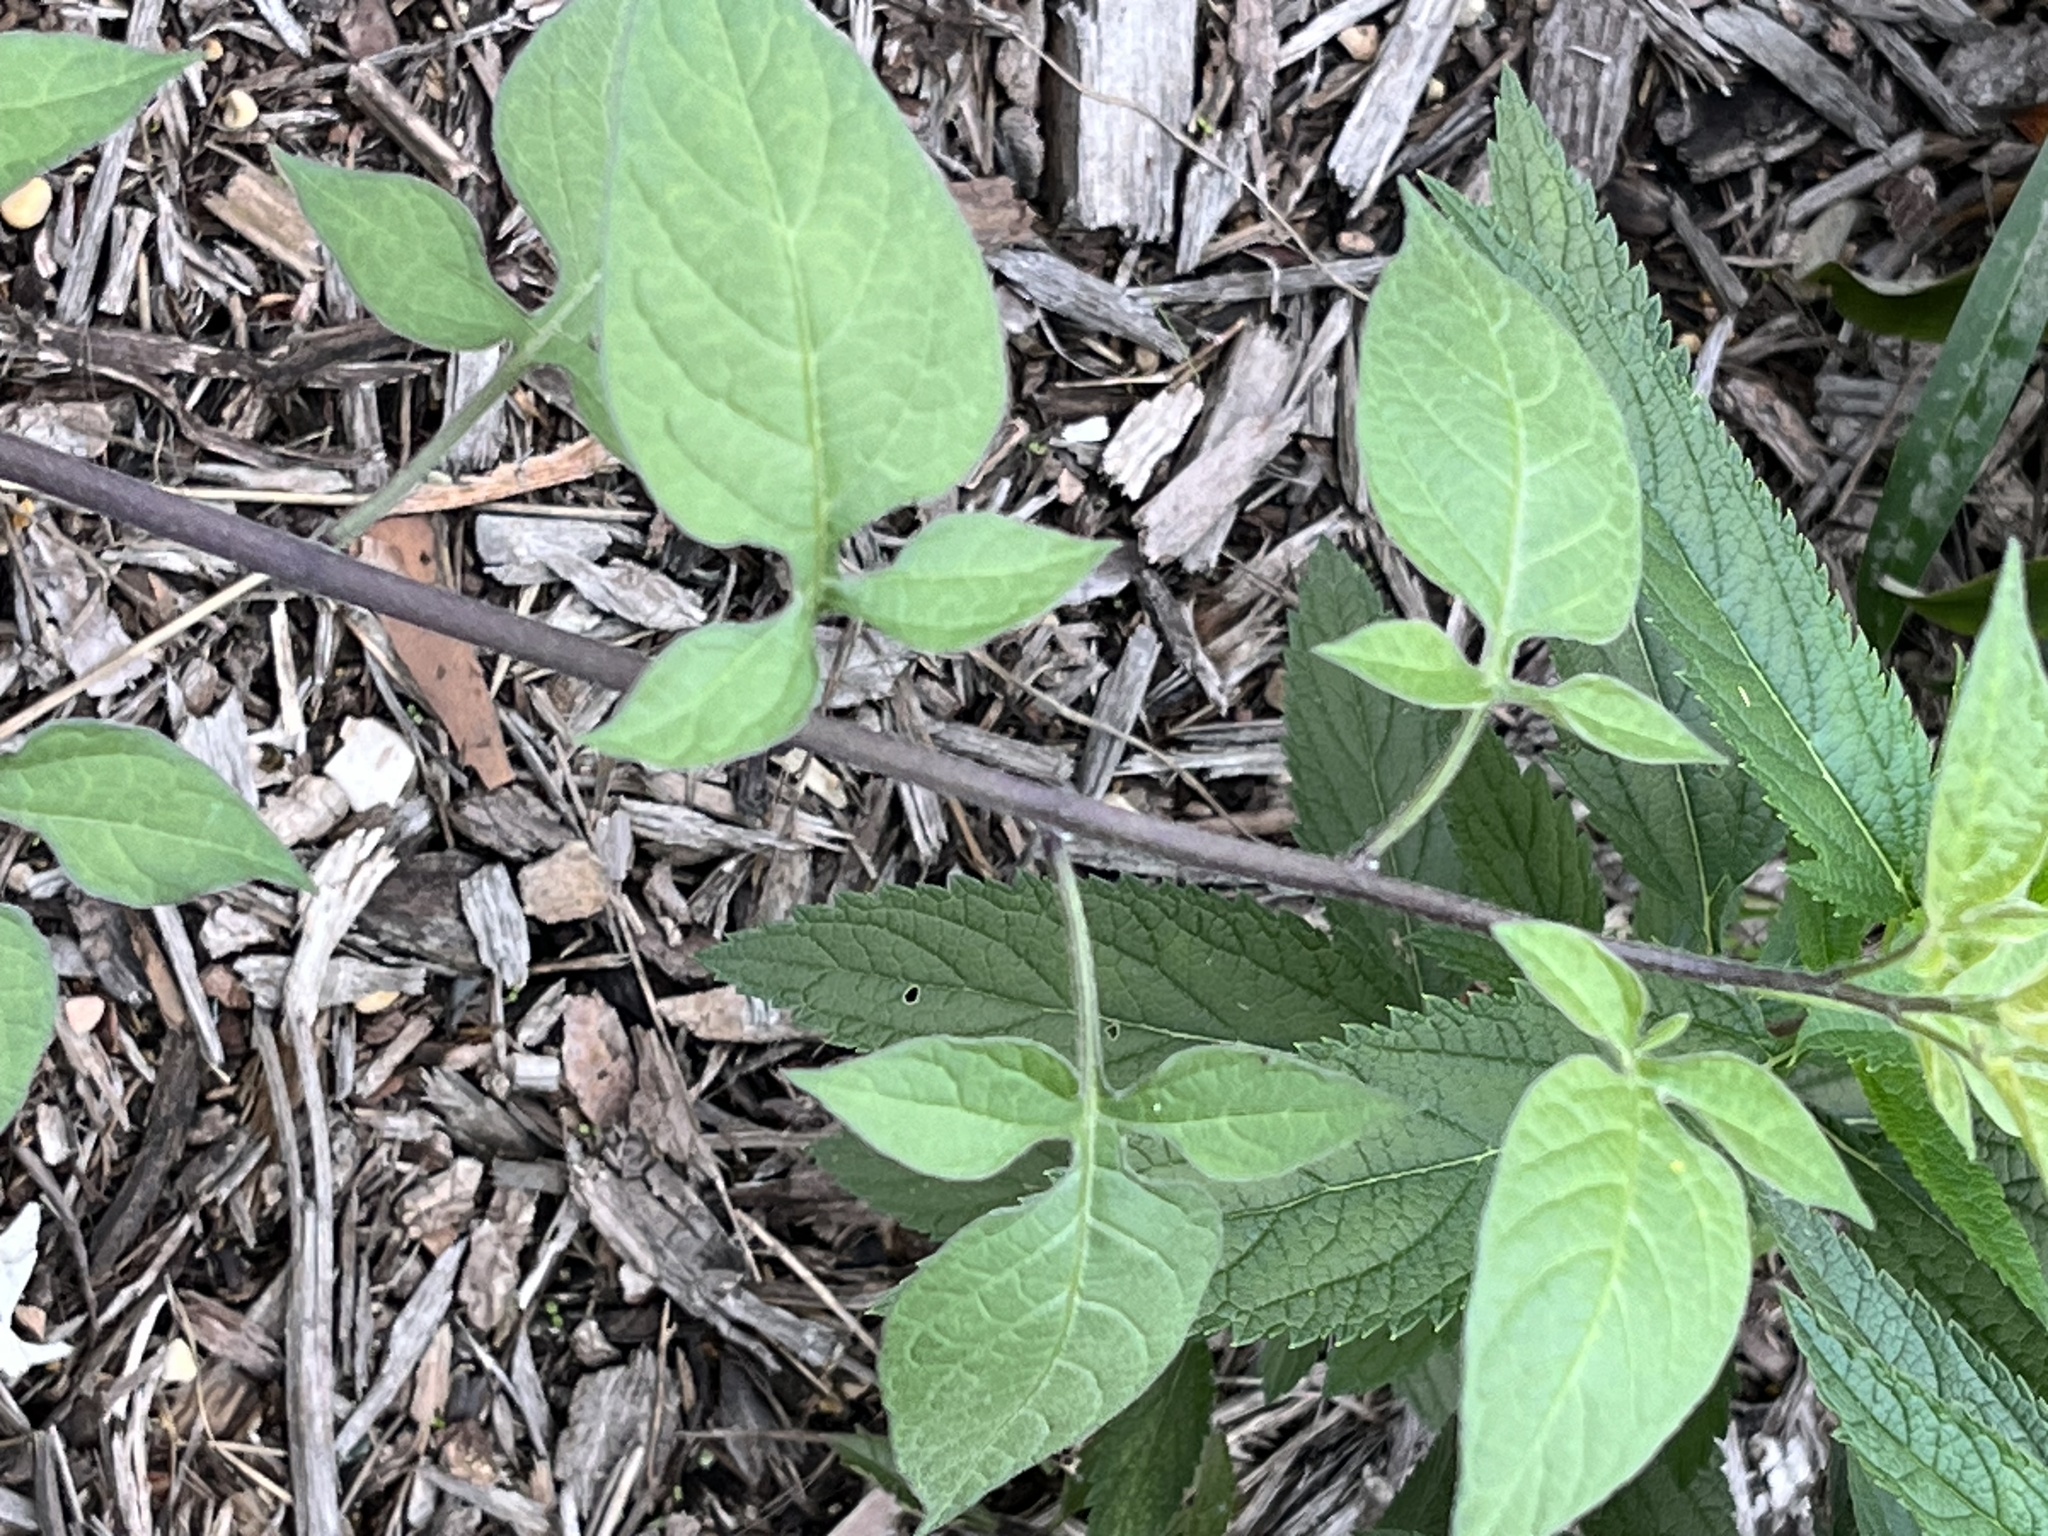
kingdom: Plantae
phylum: Tracheophyta
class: Magnoliopsida
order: Solanales
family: Solanaceae
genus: Solanum
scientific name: Solanum dulcamara
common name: Climbing nightshade
